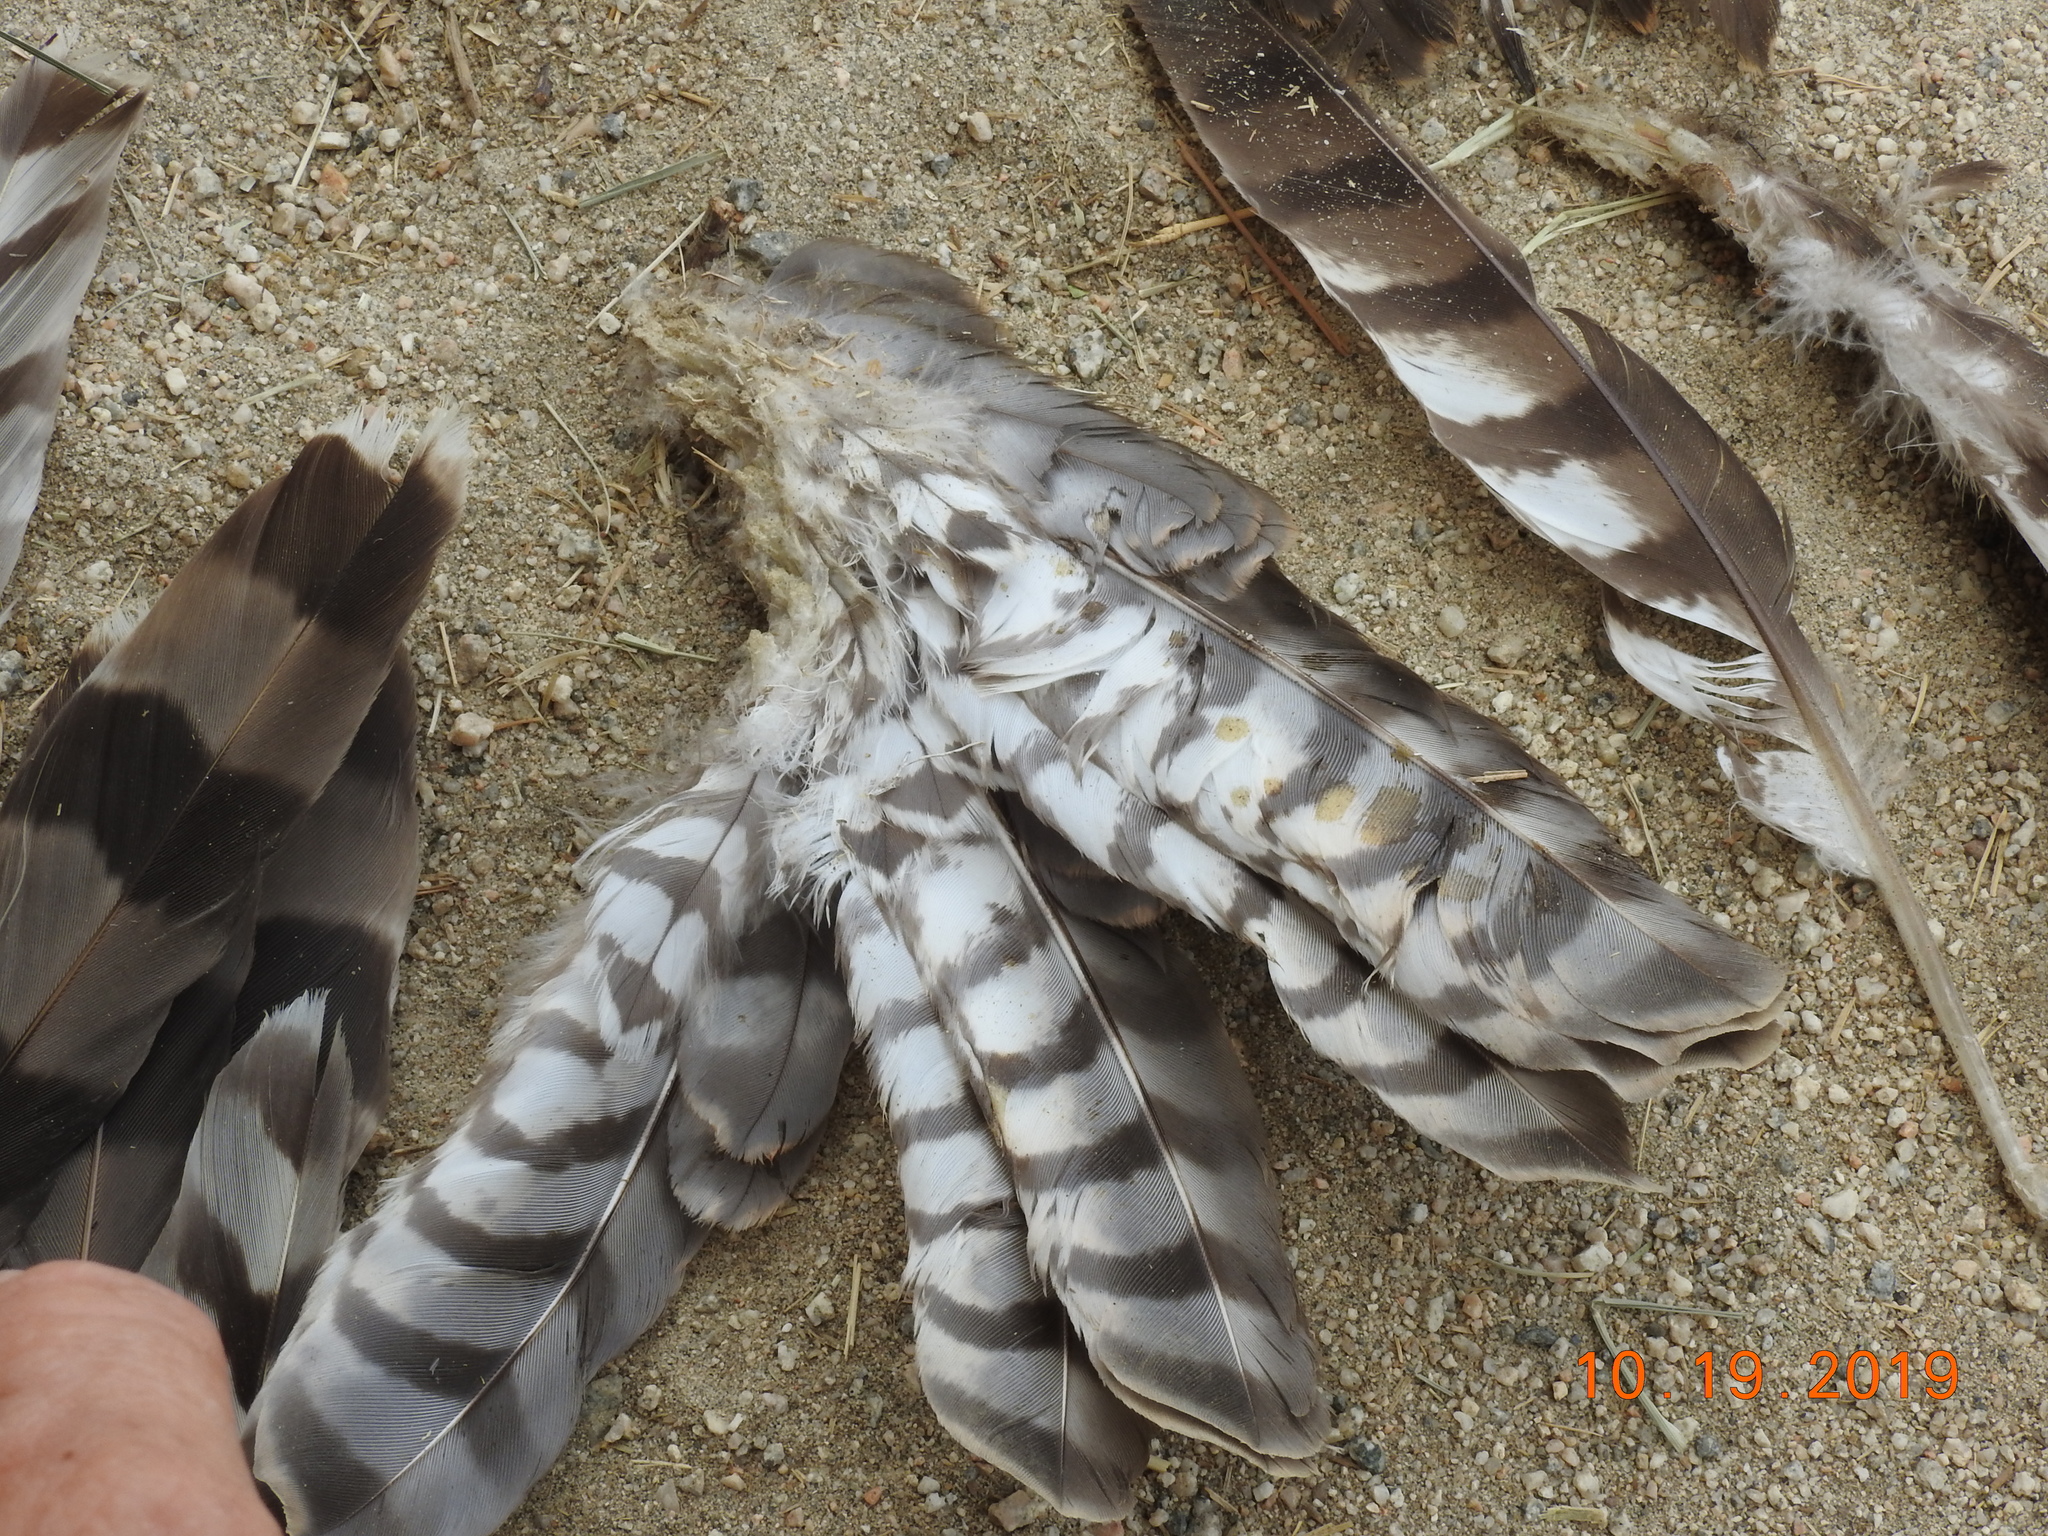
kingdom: Animalia
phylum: Chordata
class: Aves
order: Accipitriformes
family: Accipitridae
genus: Accipiter
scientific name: Accipiter cooperii
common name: Cooper's hawk
